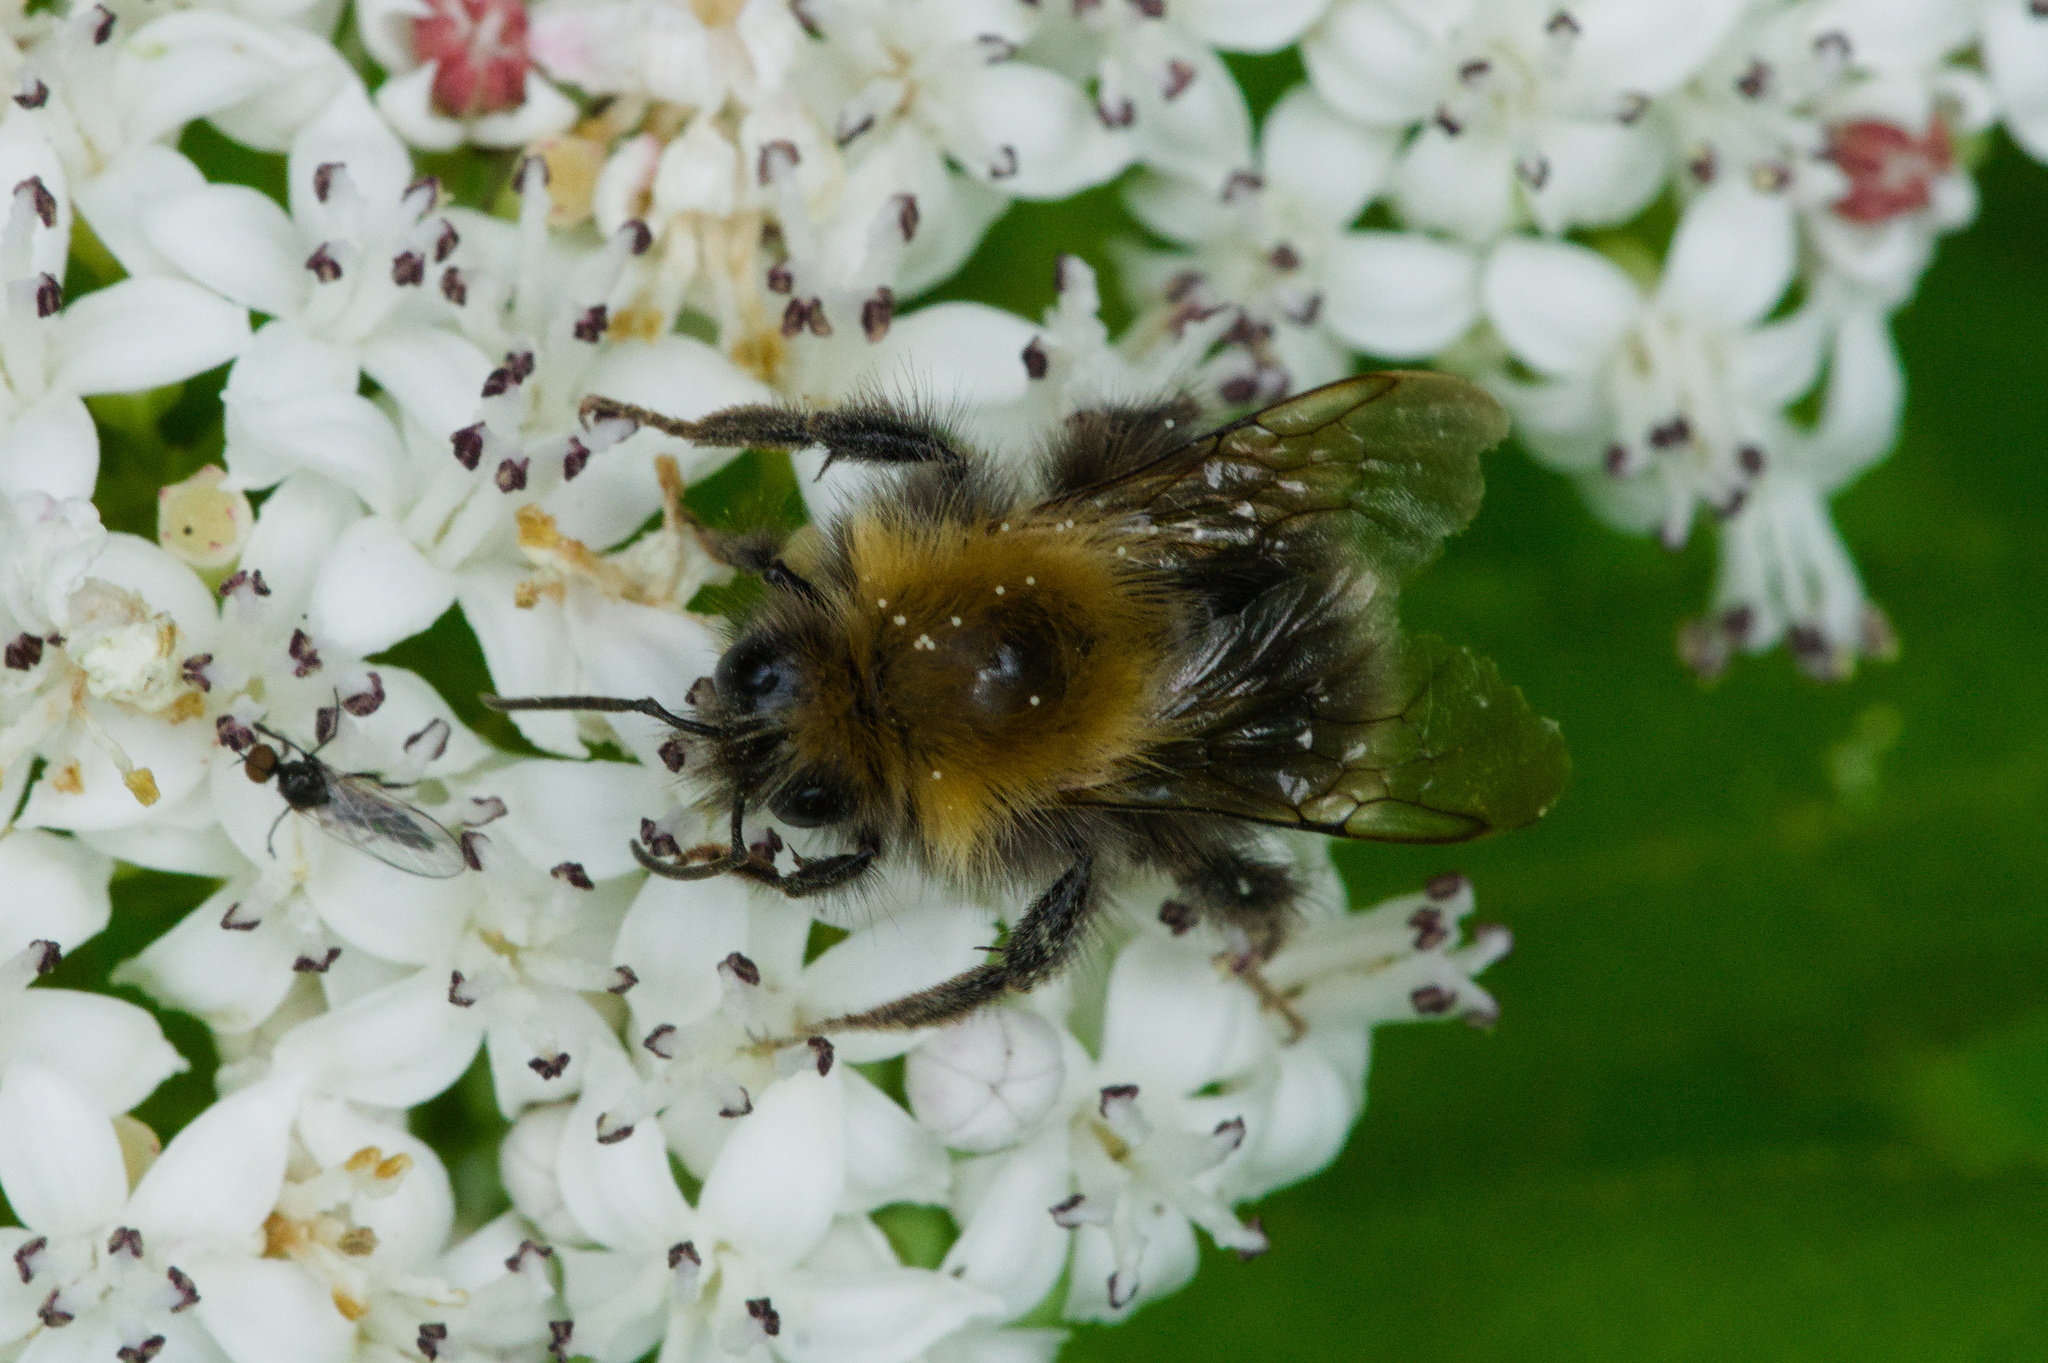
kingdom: Animalia
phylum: Arthropoda
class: Insecta
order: Hymenoptera
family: Apidae
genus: Bombus
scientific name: Bombus hypnorum
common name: New garden bumblebee
